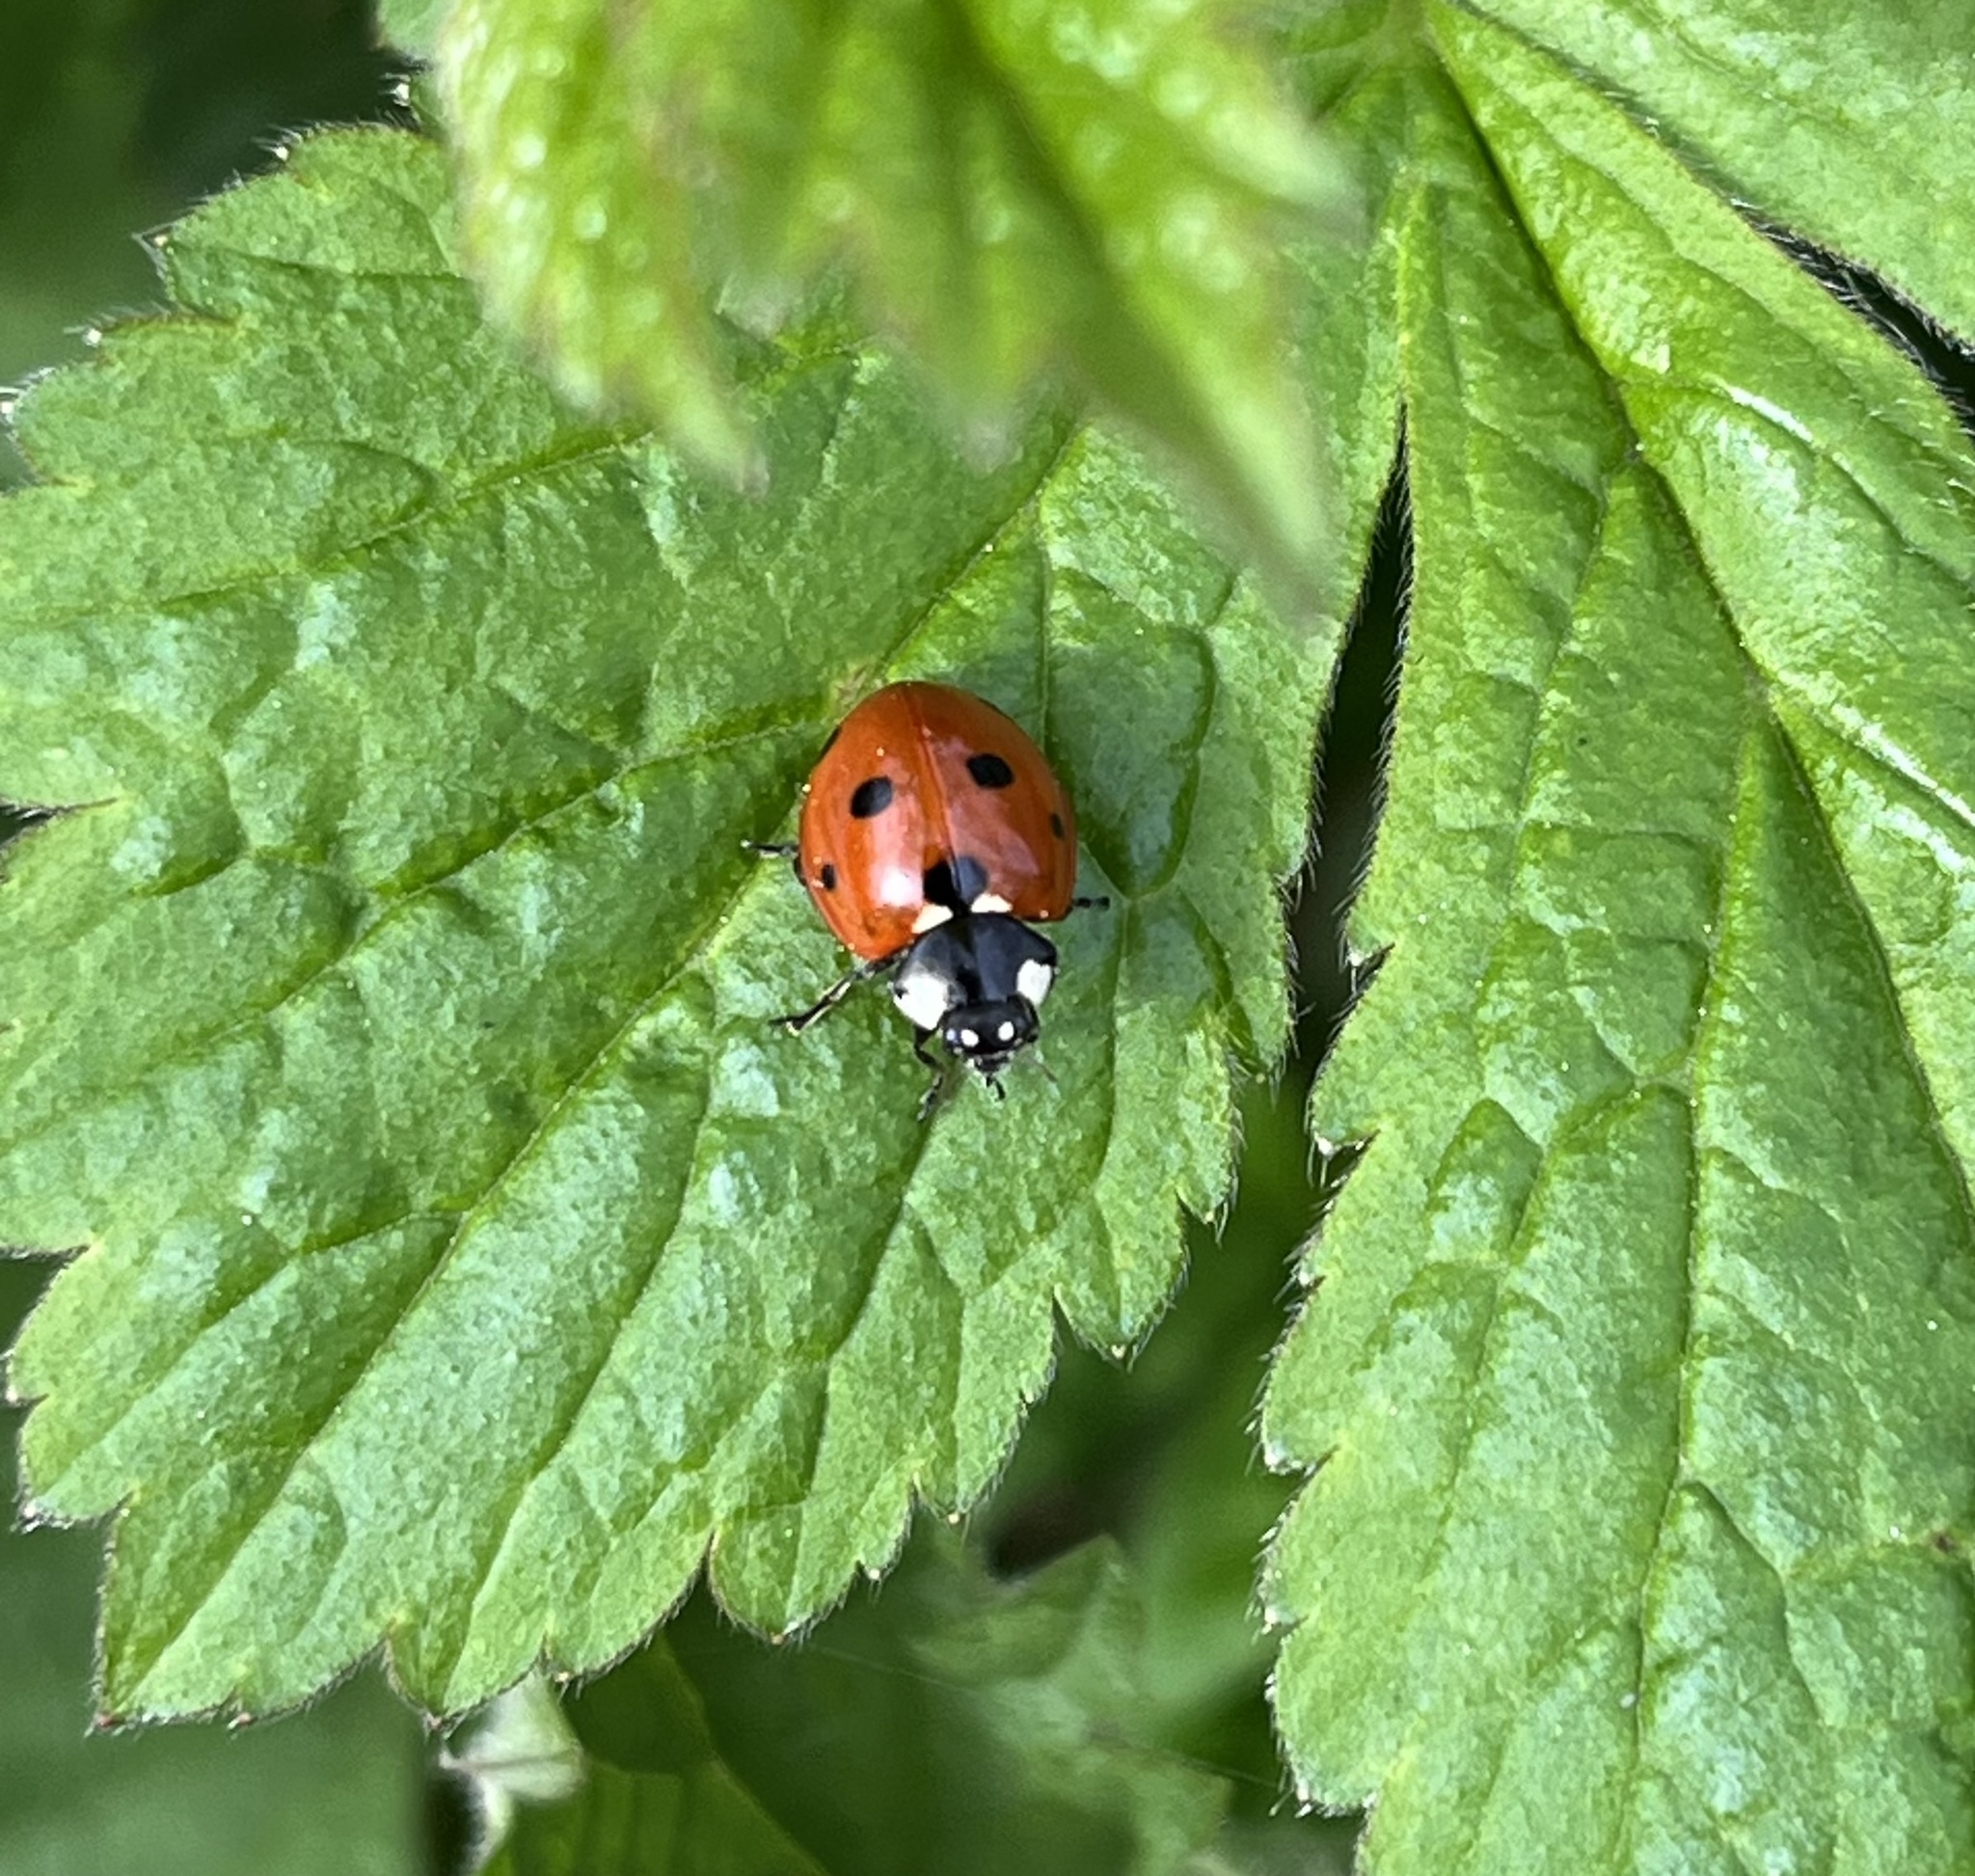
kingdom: Animalia
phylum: Arthropoda
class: Insecta
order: Coleoptera
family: Coccinellidae
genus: Coccinella
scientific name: Coccinella septempunctata
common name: Sevenspotted lady beetle
